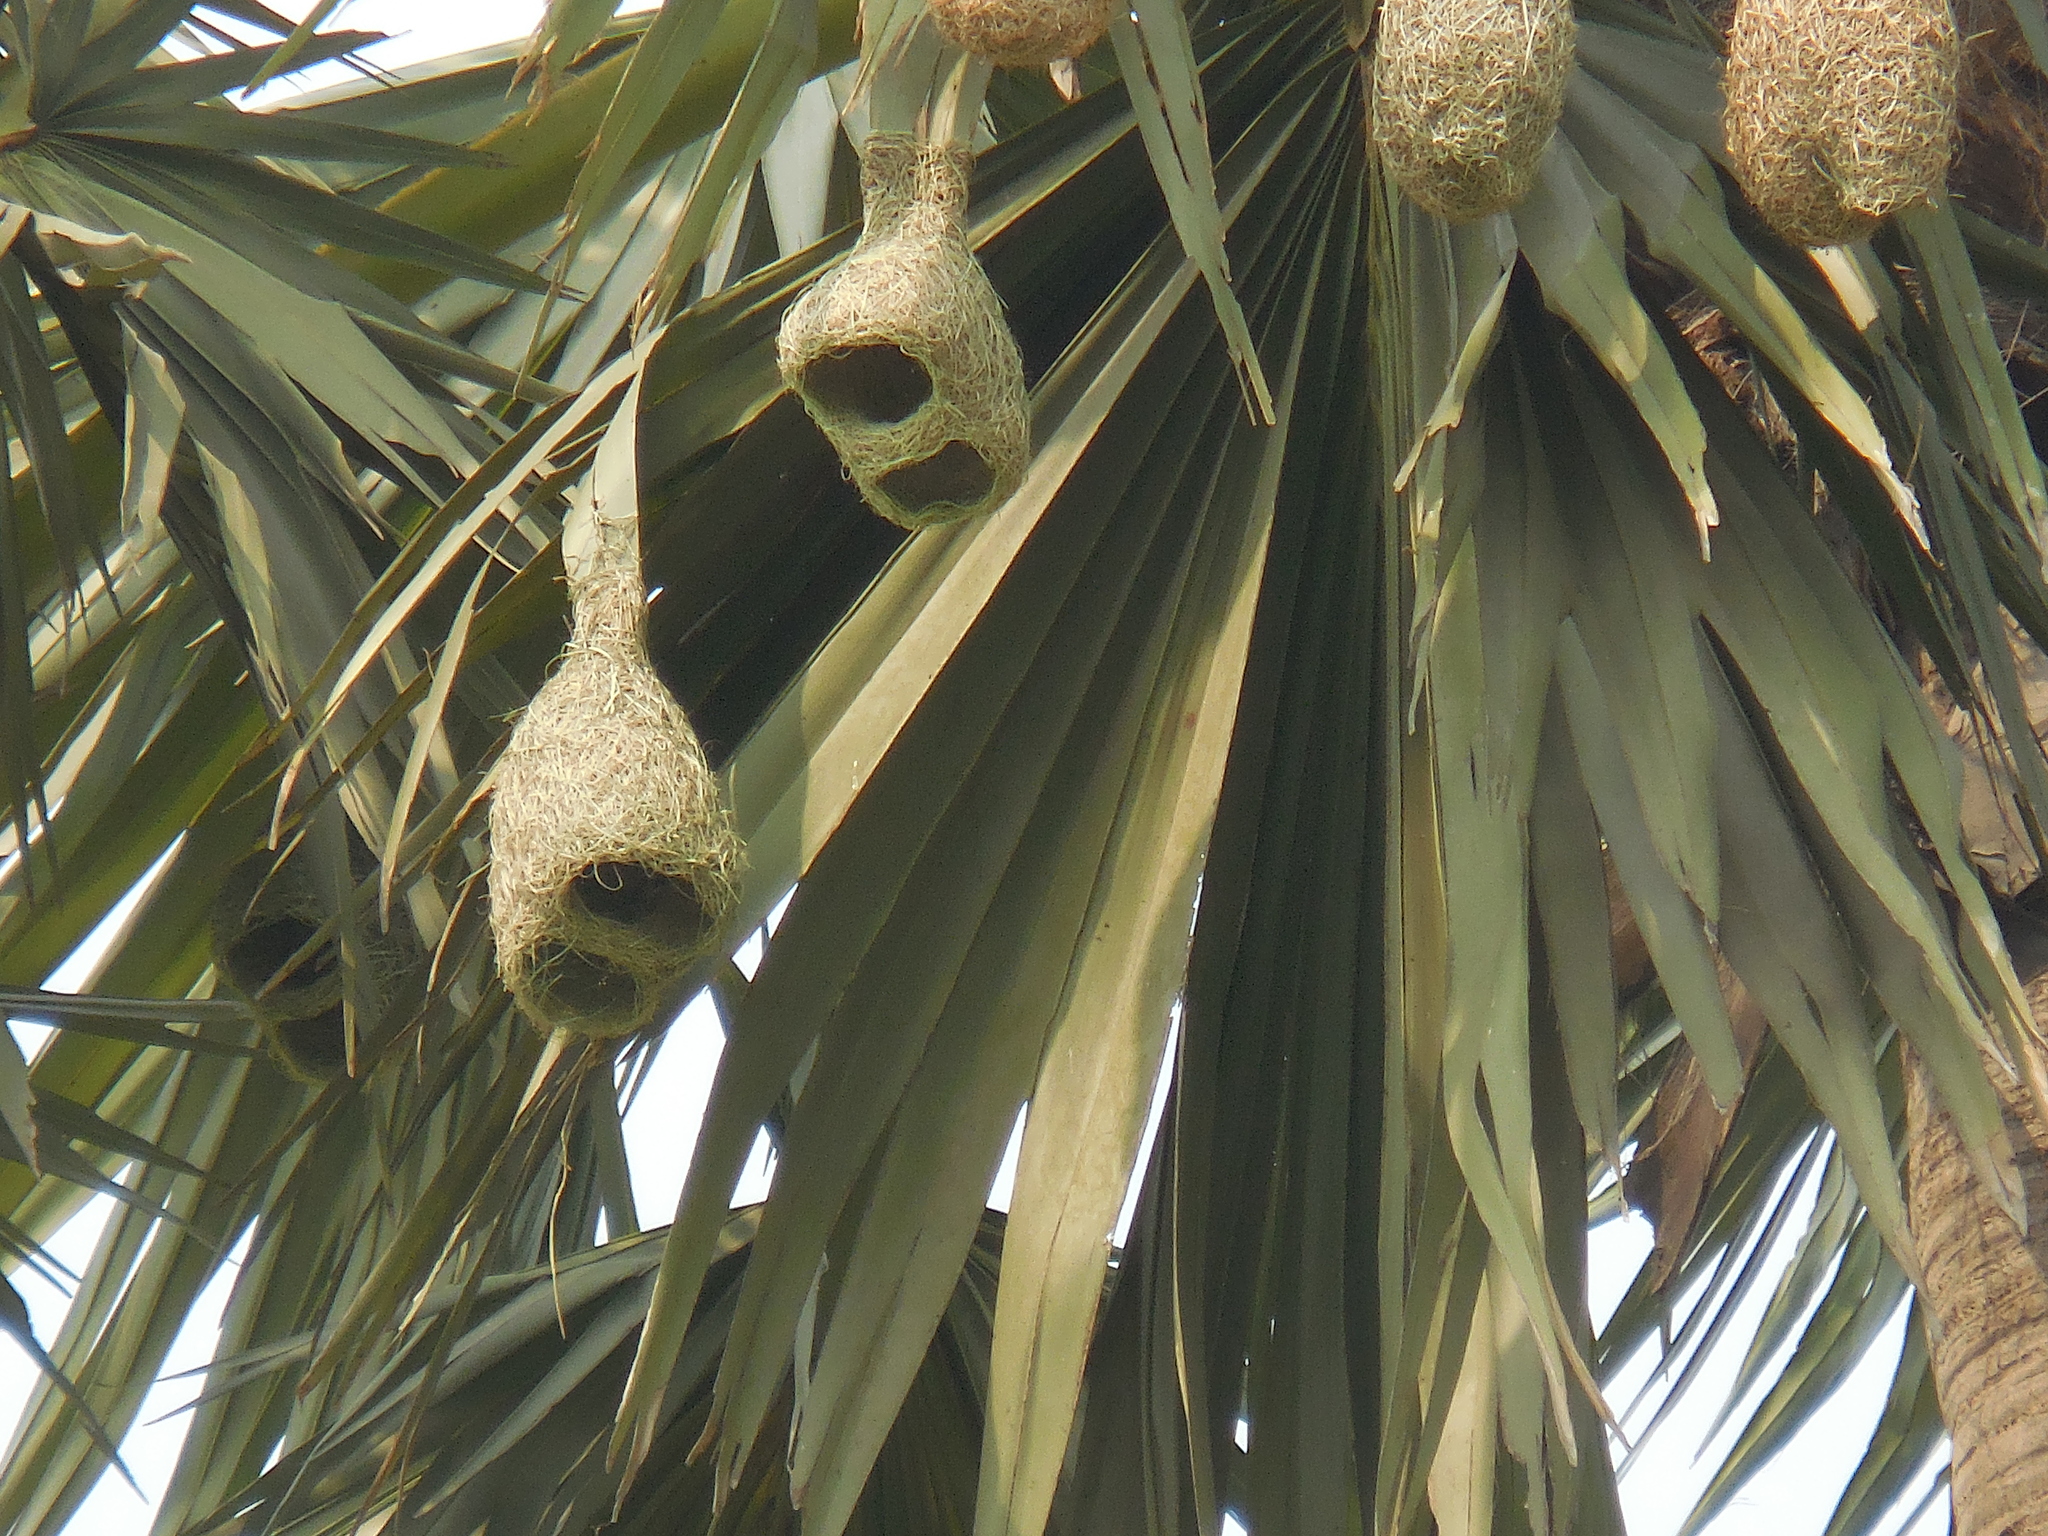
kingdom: Animalia
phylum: Chordata
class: Aves
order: Passeriformes
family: Ploceidae
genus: Ploceus
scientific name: Ploceus philippinus
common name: Baya weaver
